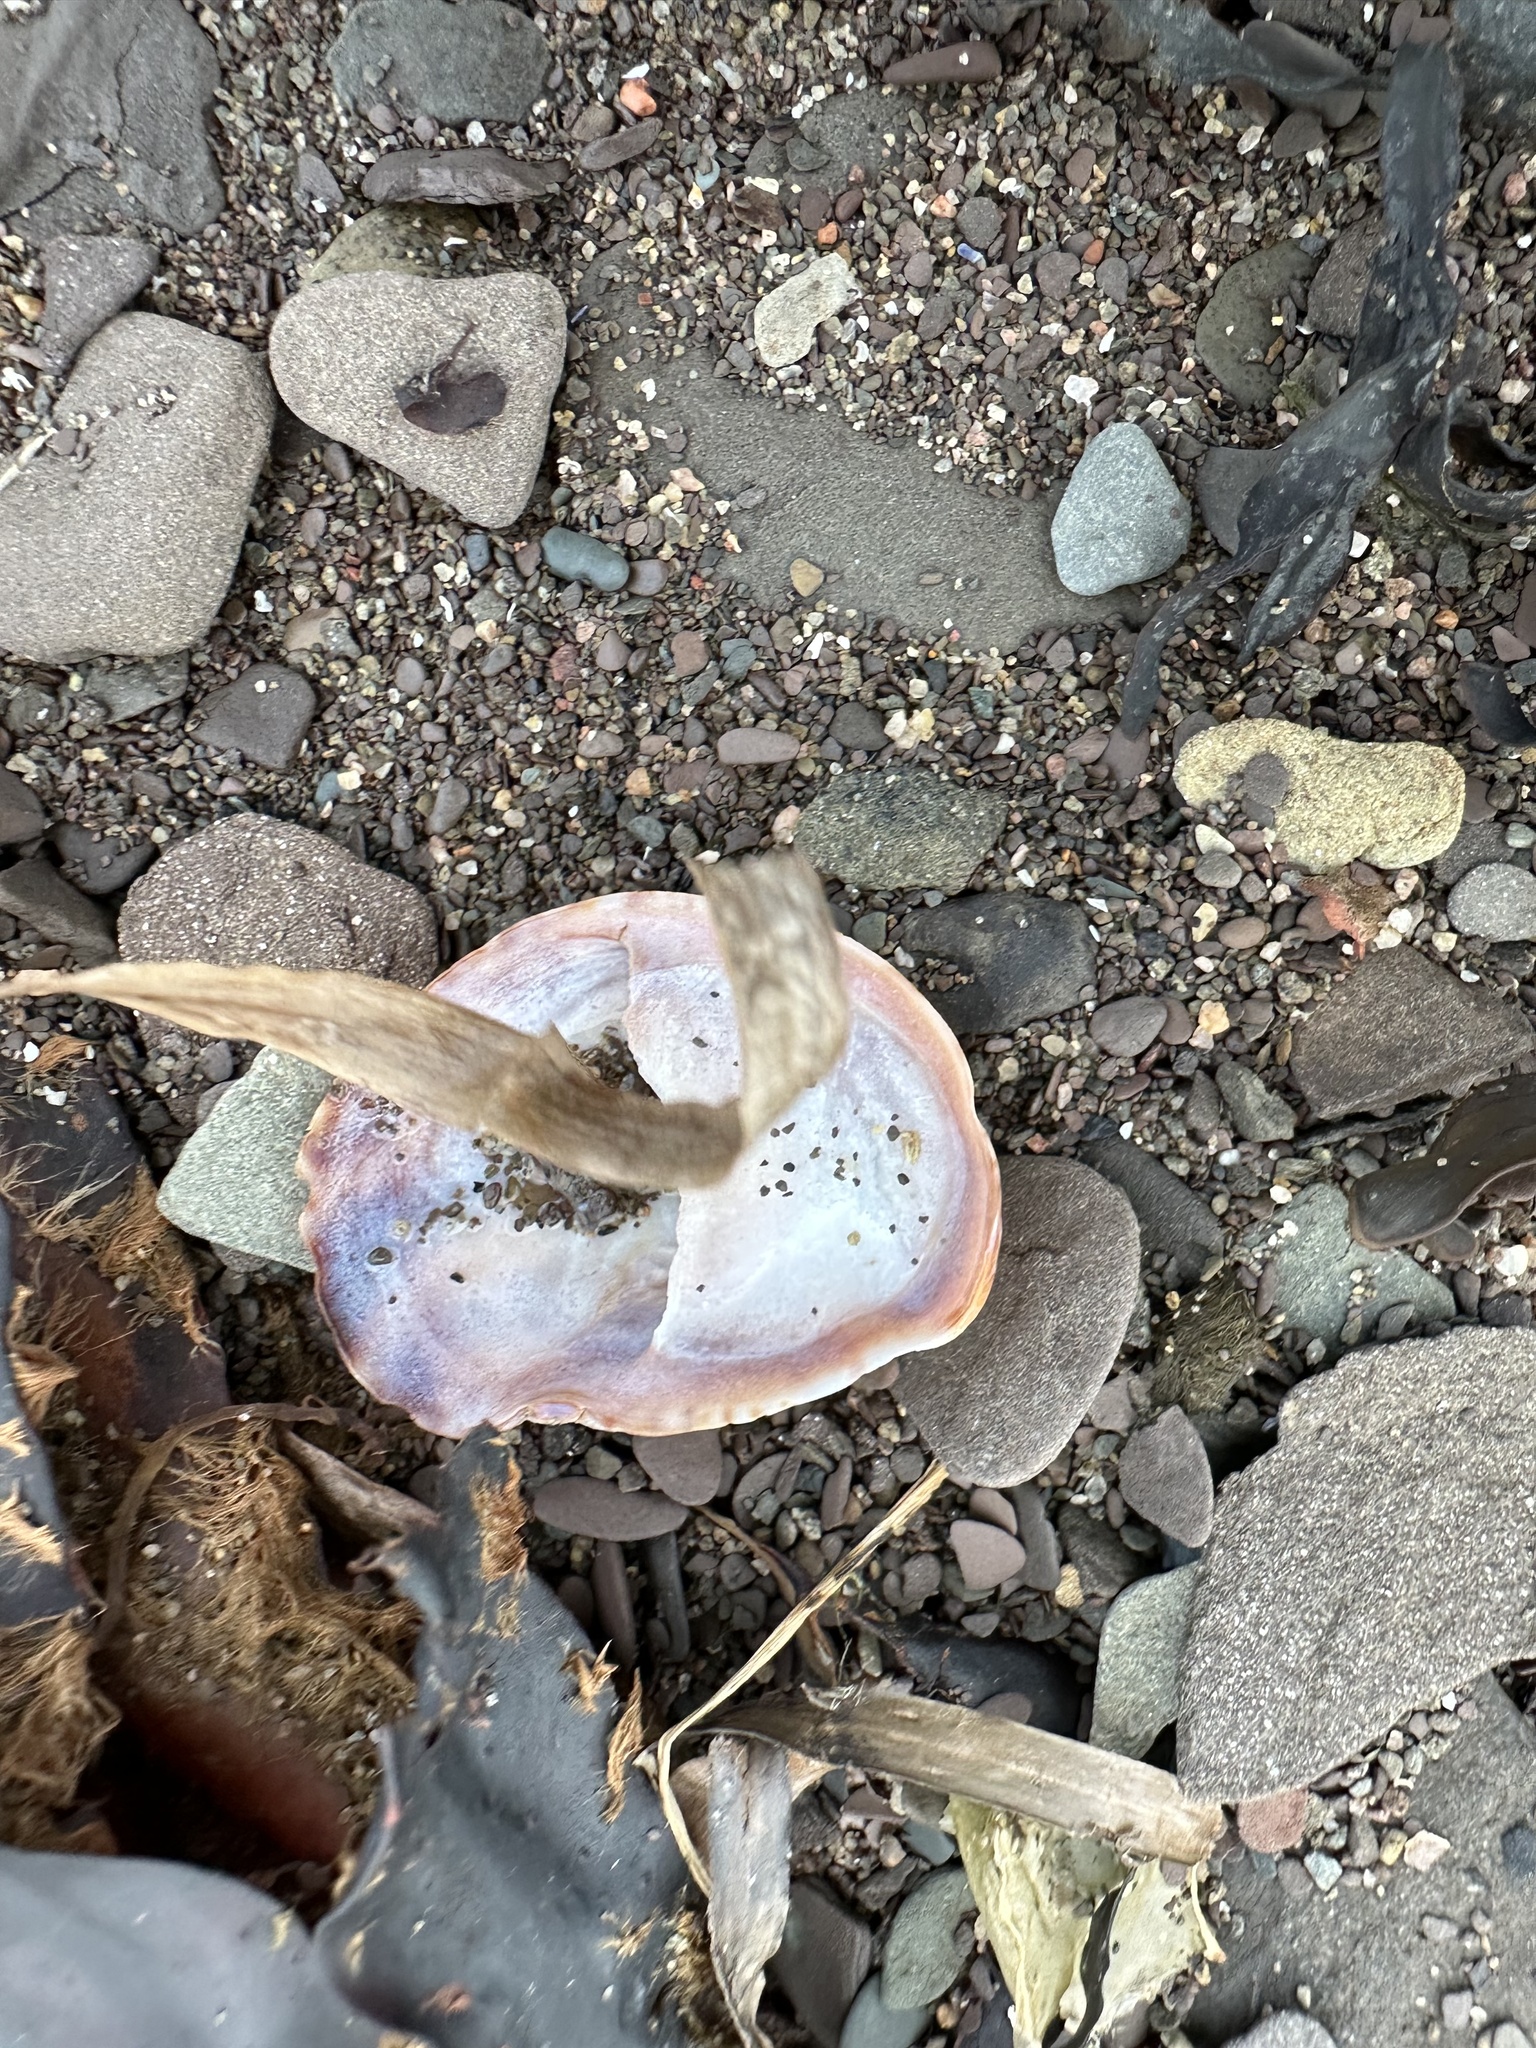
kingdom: Animalia
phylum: Mollusca
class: Gastropoda
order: Littorinimorpha
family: Calyptraeidae
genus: Crepidula
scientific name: Crepidula fornicata
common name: Slipper limpet
